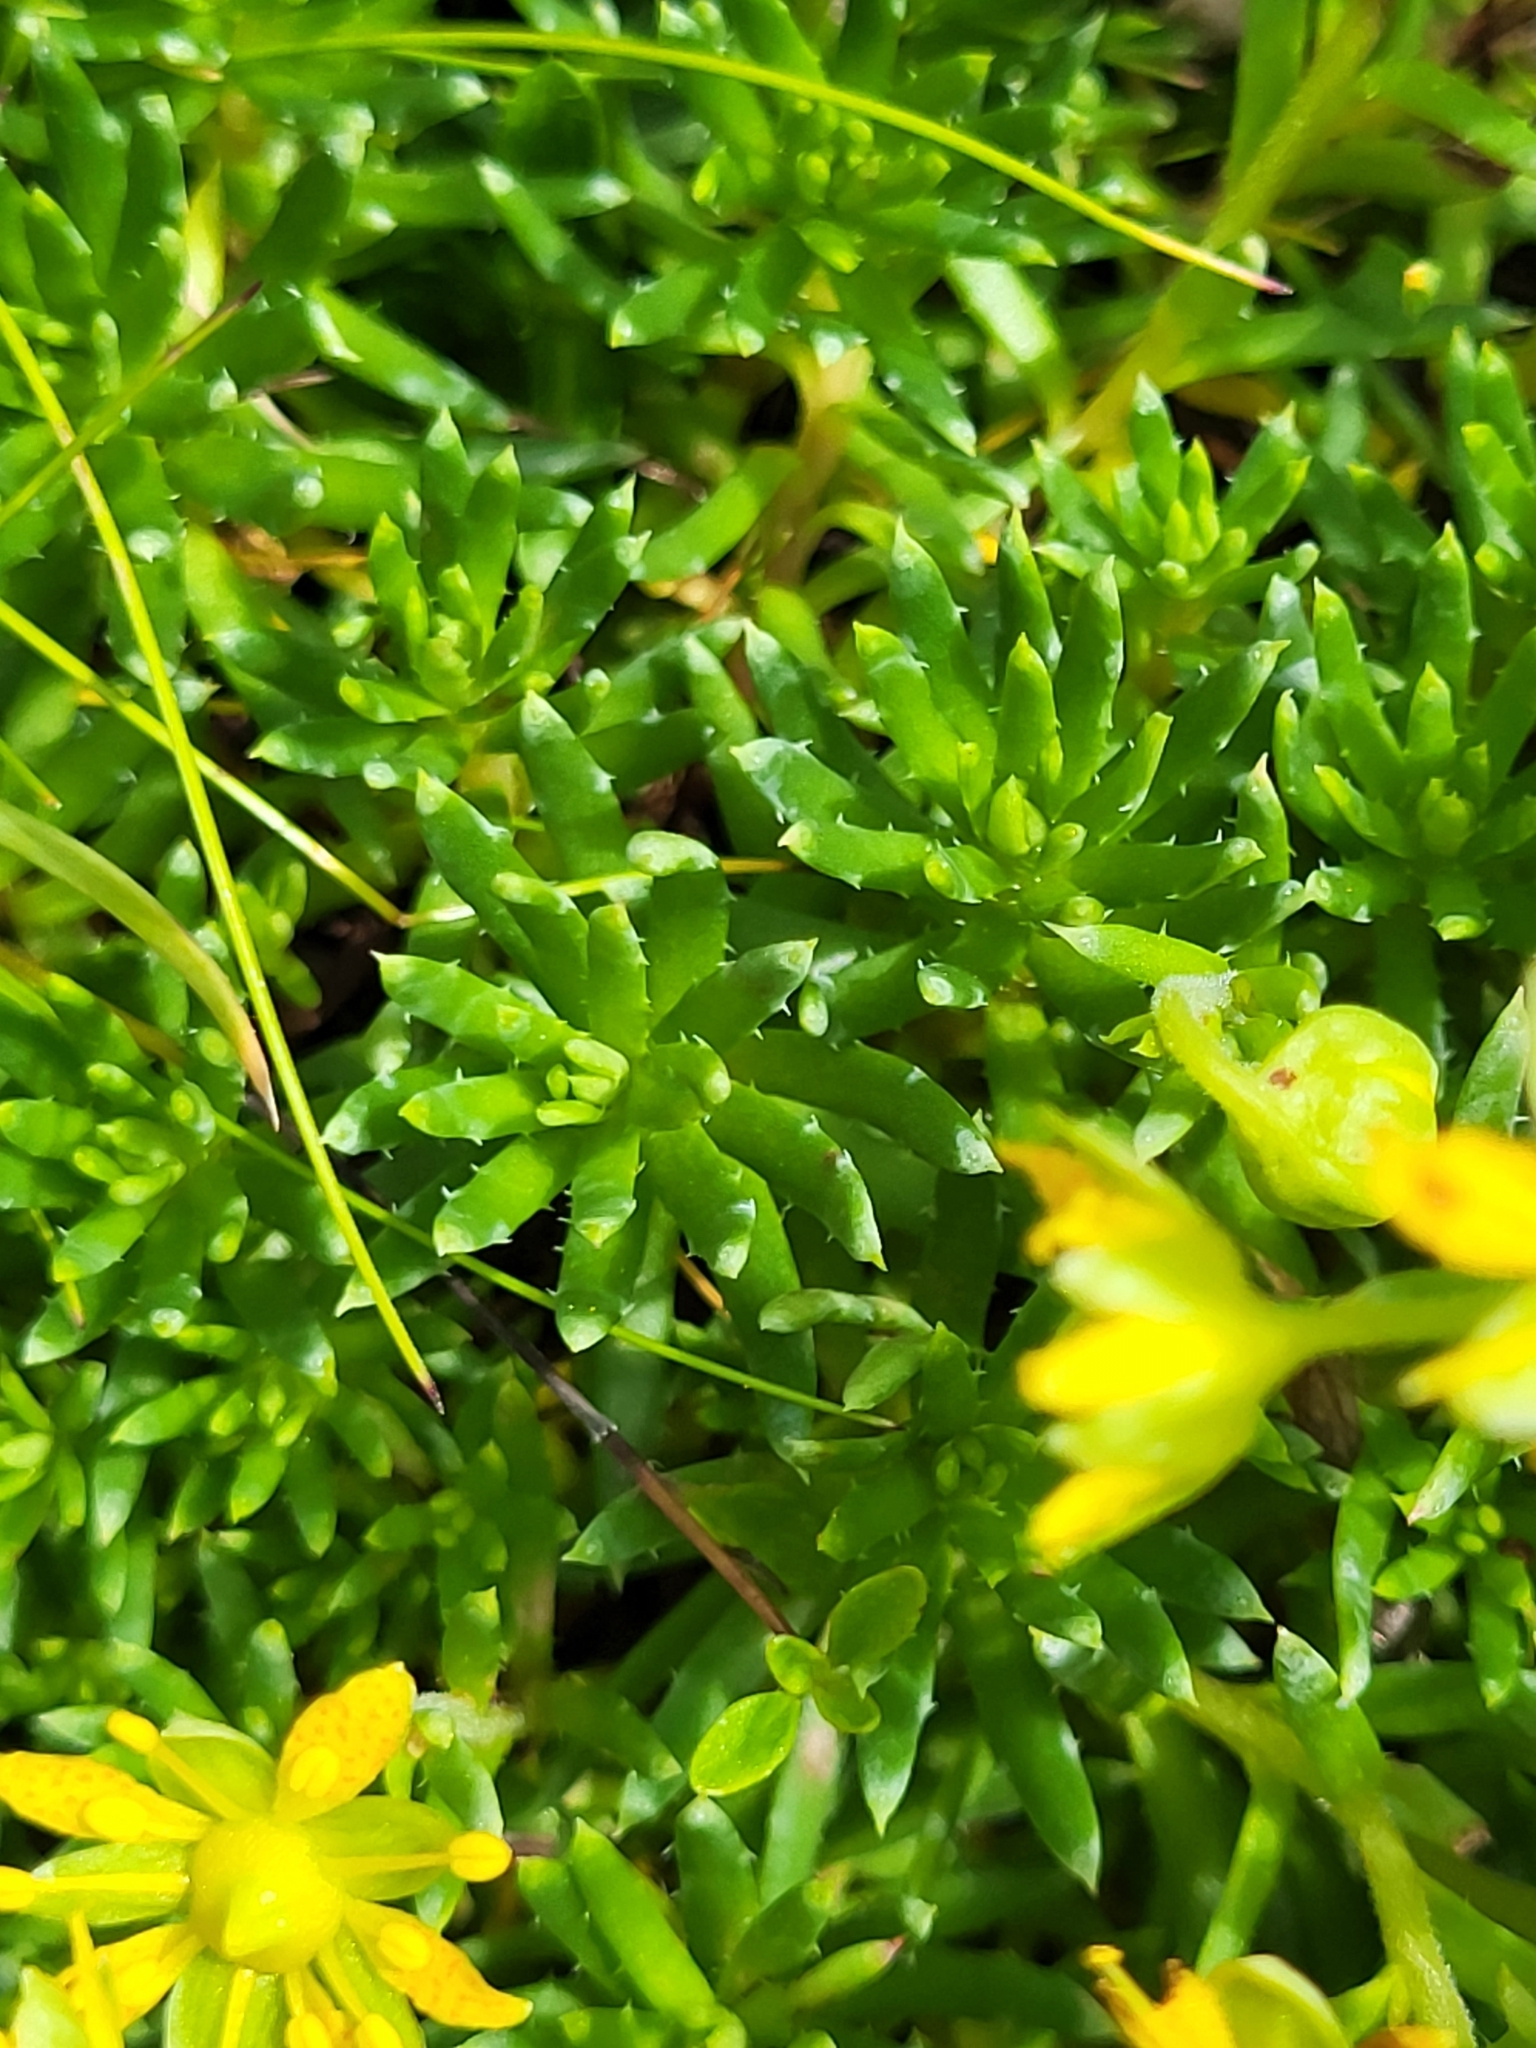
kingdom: Plantae
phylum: Tracheophyta
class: Magnoliopsida
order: Saxifragales
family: Saxifragaceae
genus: Saxifraga
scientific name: Saxifraga aizoides
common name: Yellow mountain saxifrage
